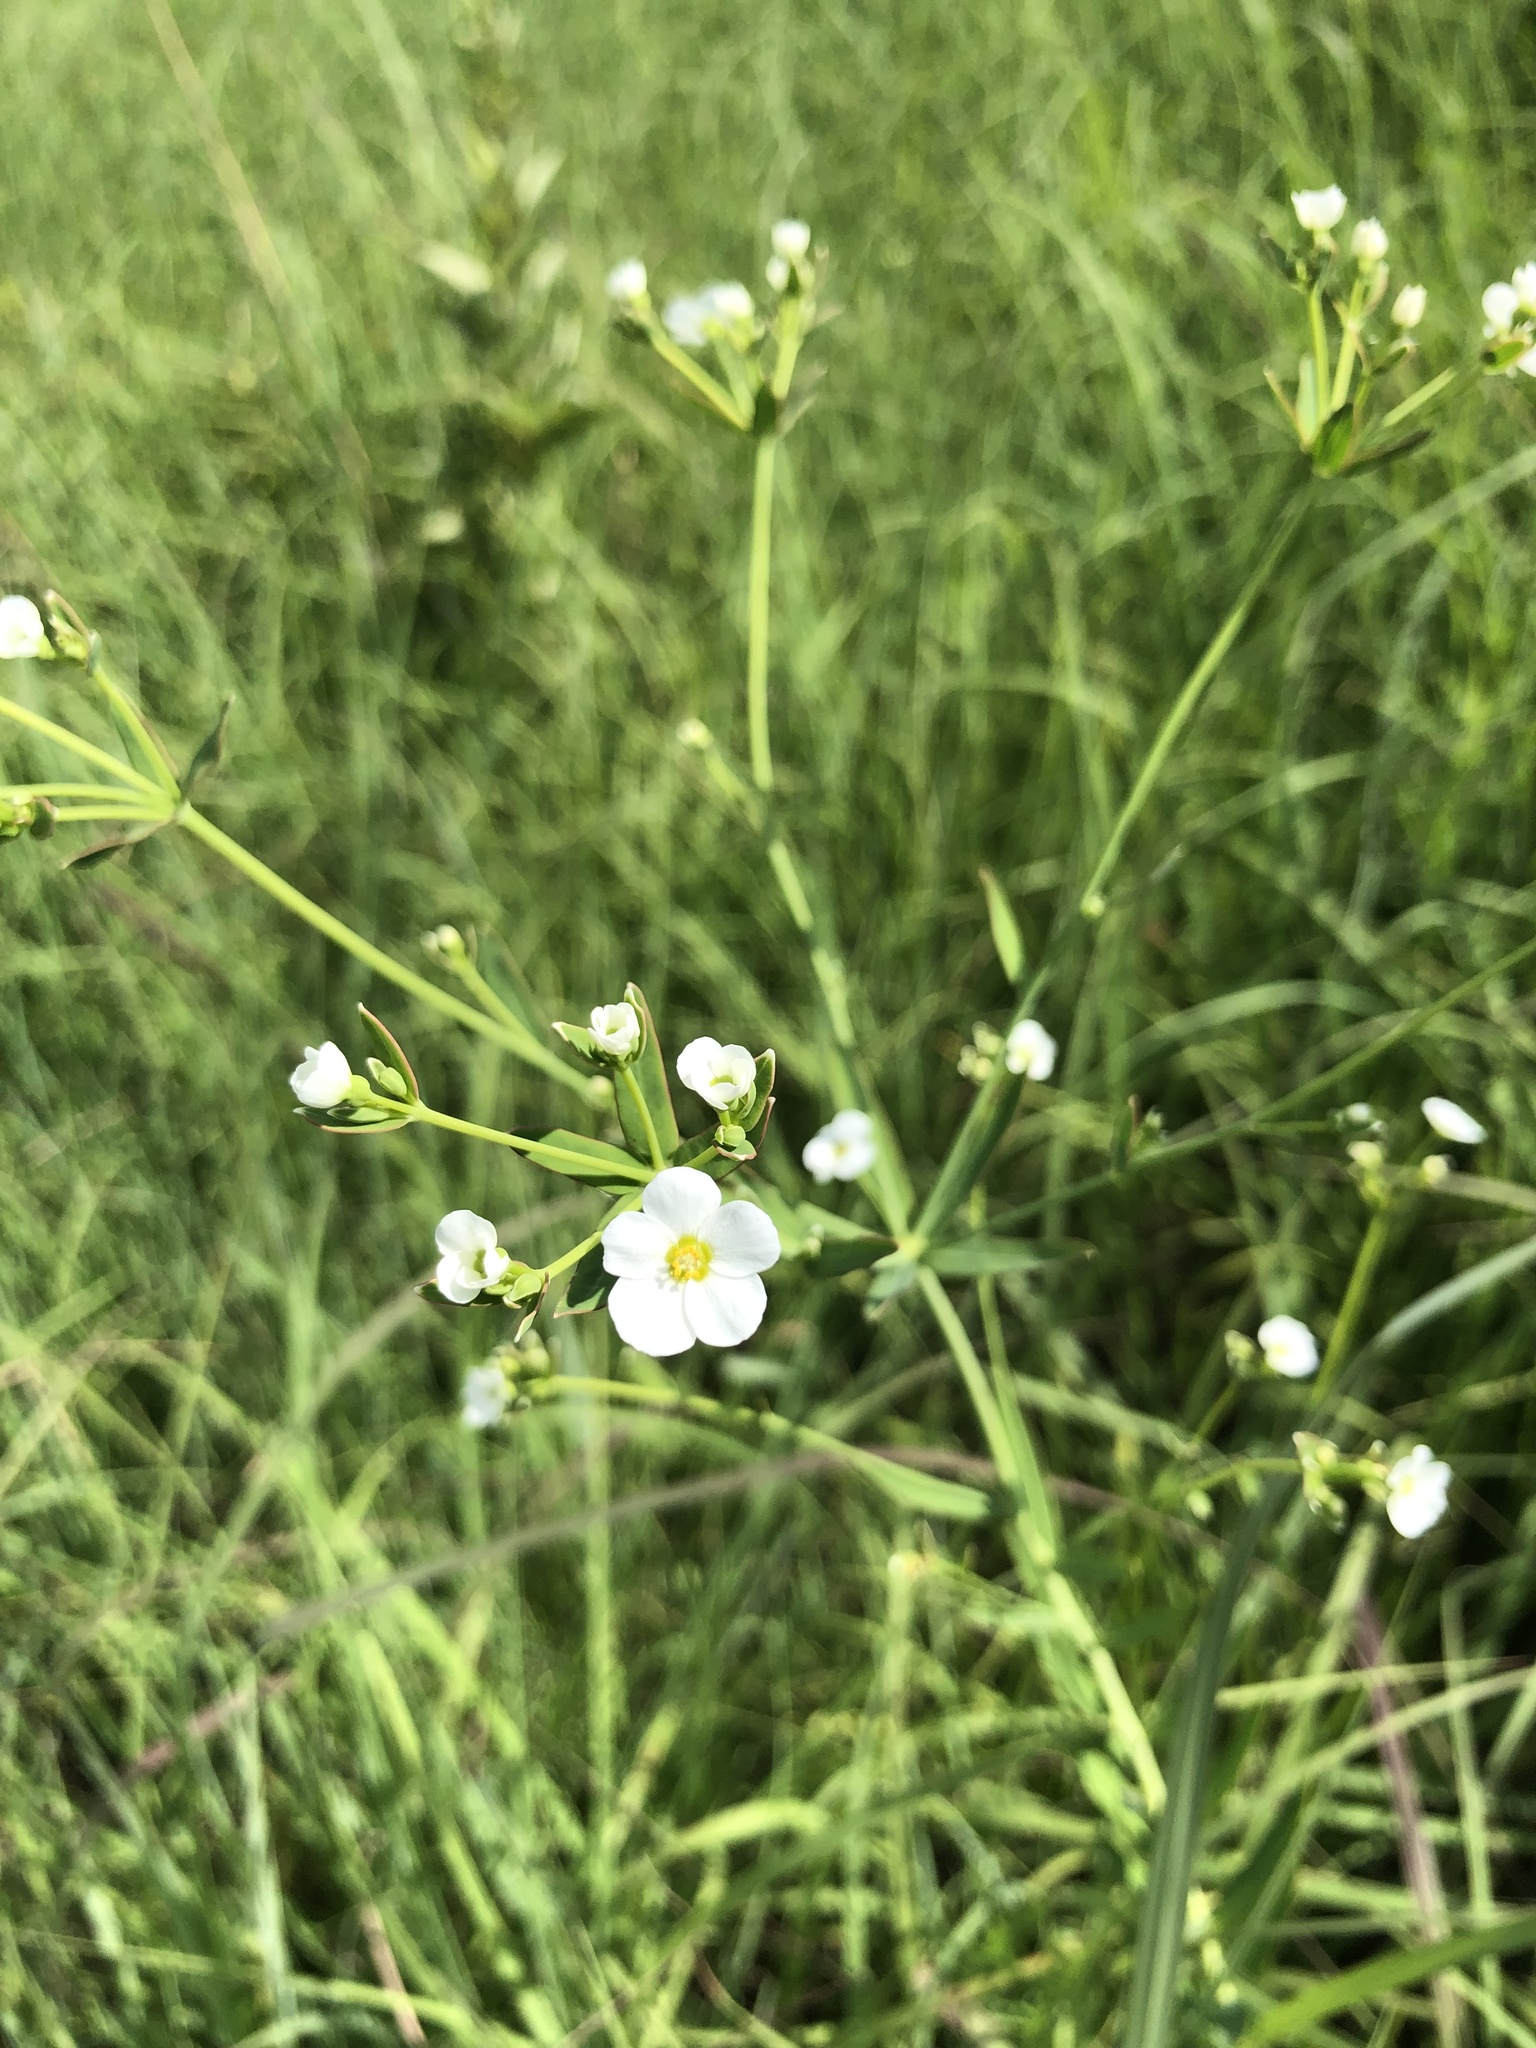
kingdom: Plantae
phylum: Tracheophyta
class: Magnoliopsida
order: Malpighiales
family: Euphorbiaceae
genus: Euphorbia
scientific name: Euphorbia corollata
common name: Flowering spurge
